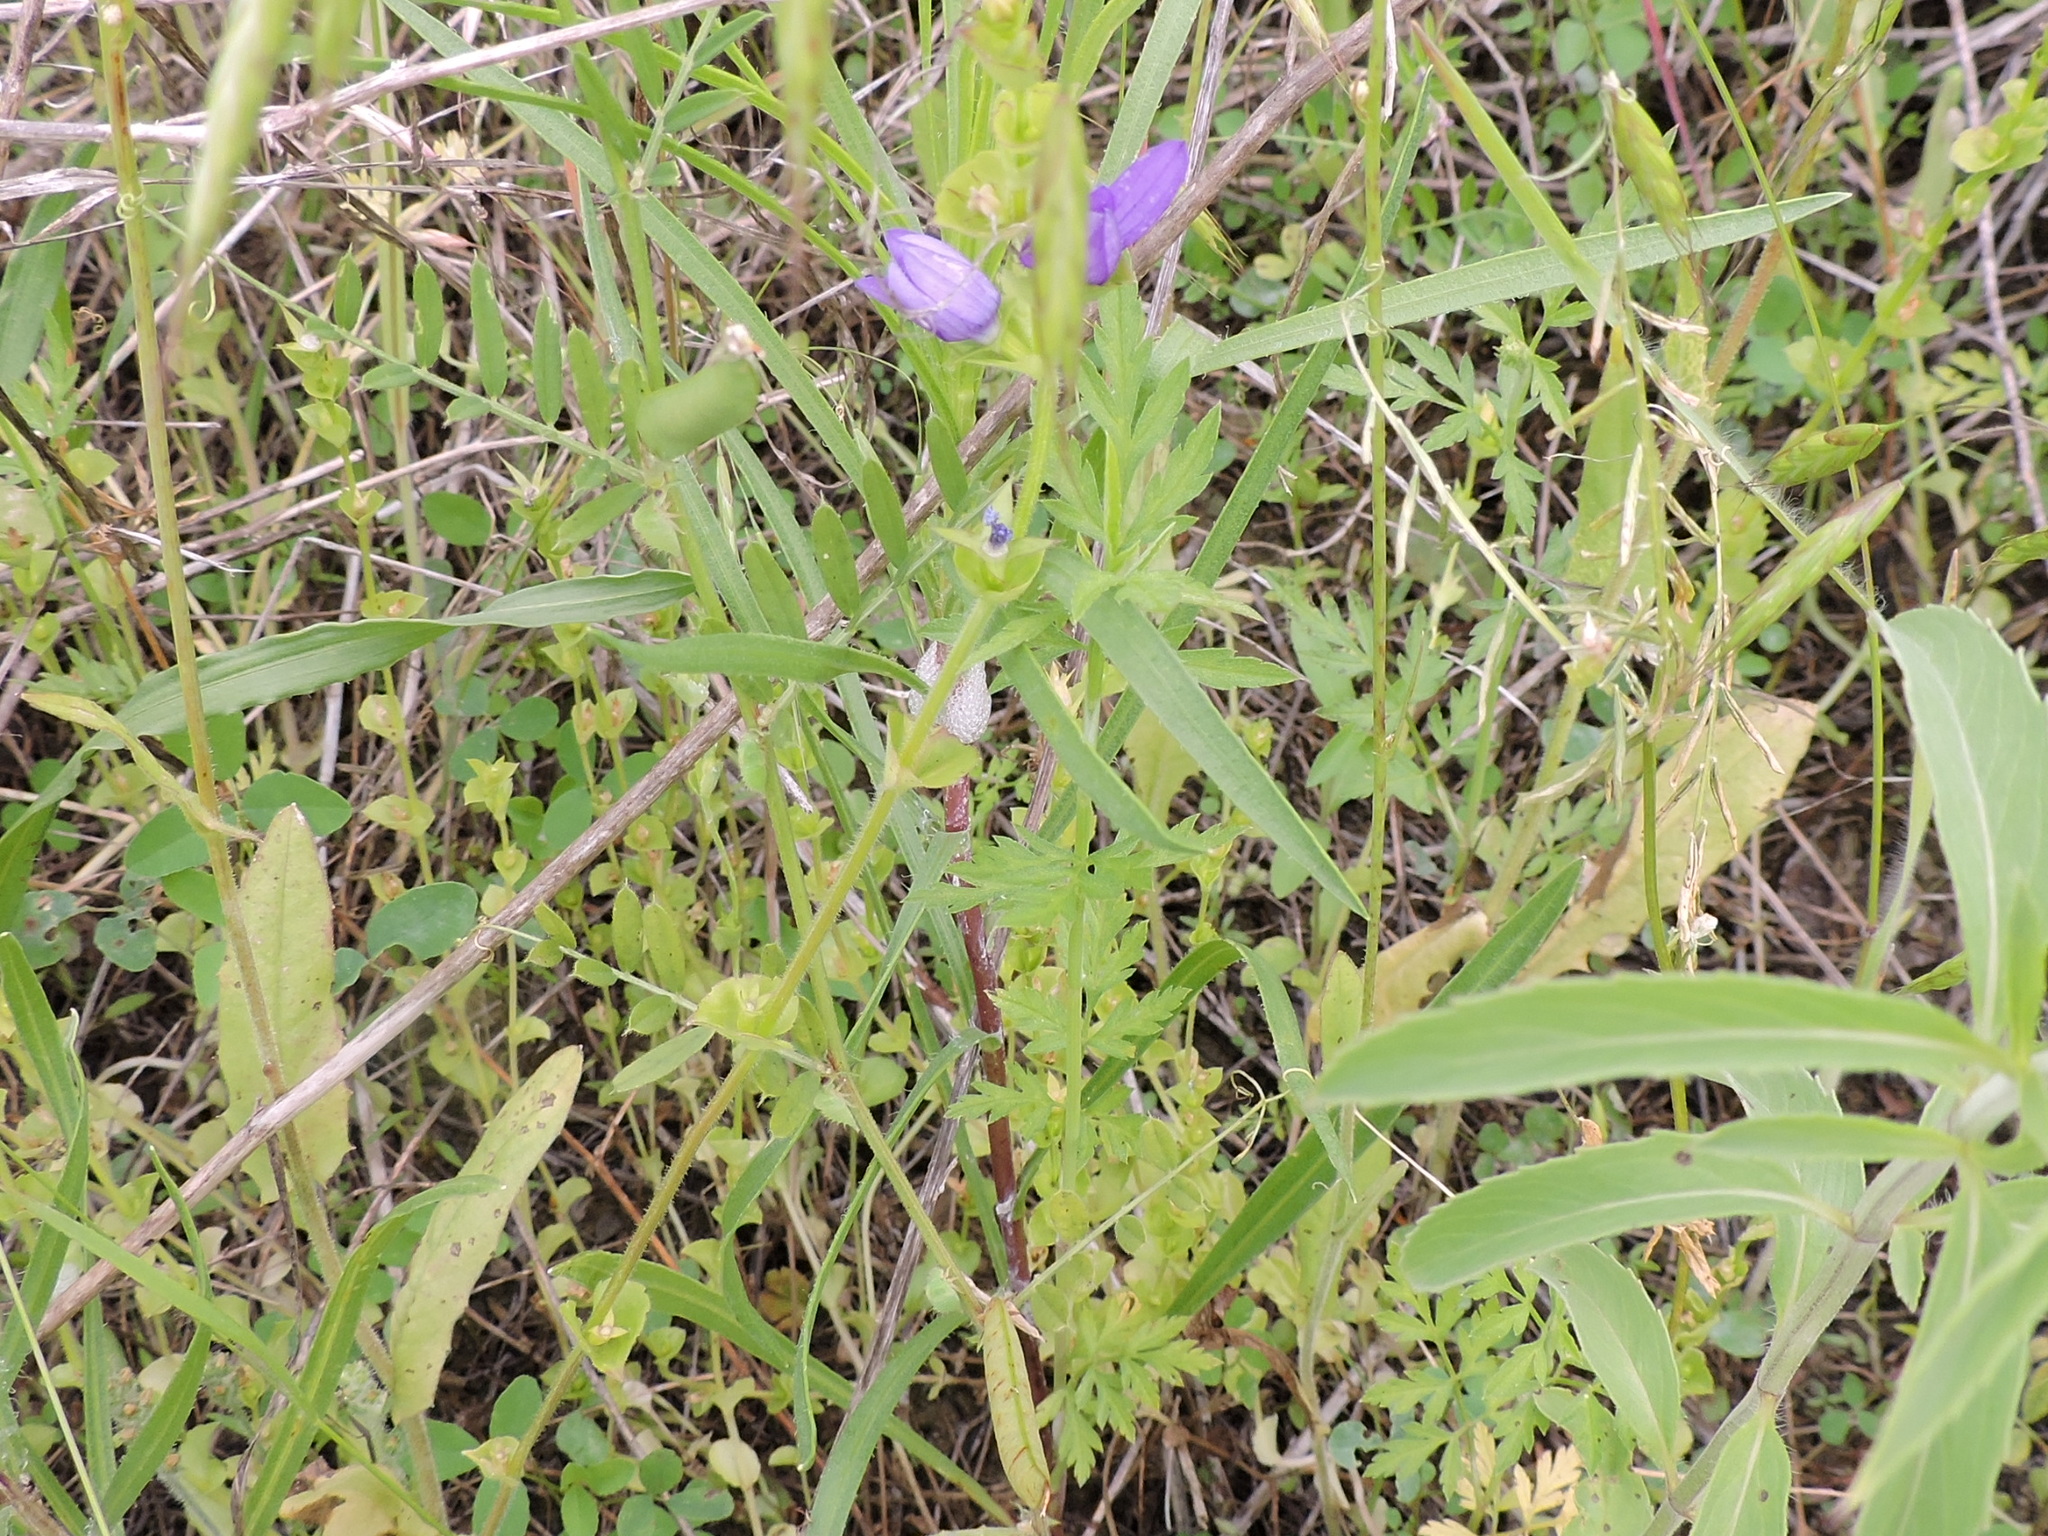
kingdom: Plantae
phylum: Tracheophyta
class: Magnoliopsida
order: Asterales
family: Campanulaceae
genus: Triodanis
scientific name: Triodanis perfoliata
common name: Clasping venus' looking-glass
